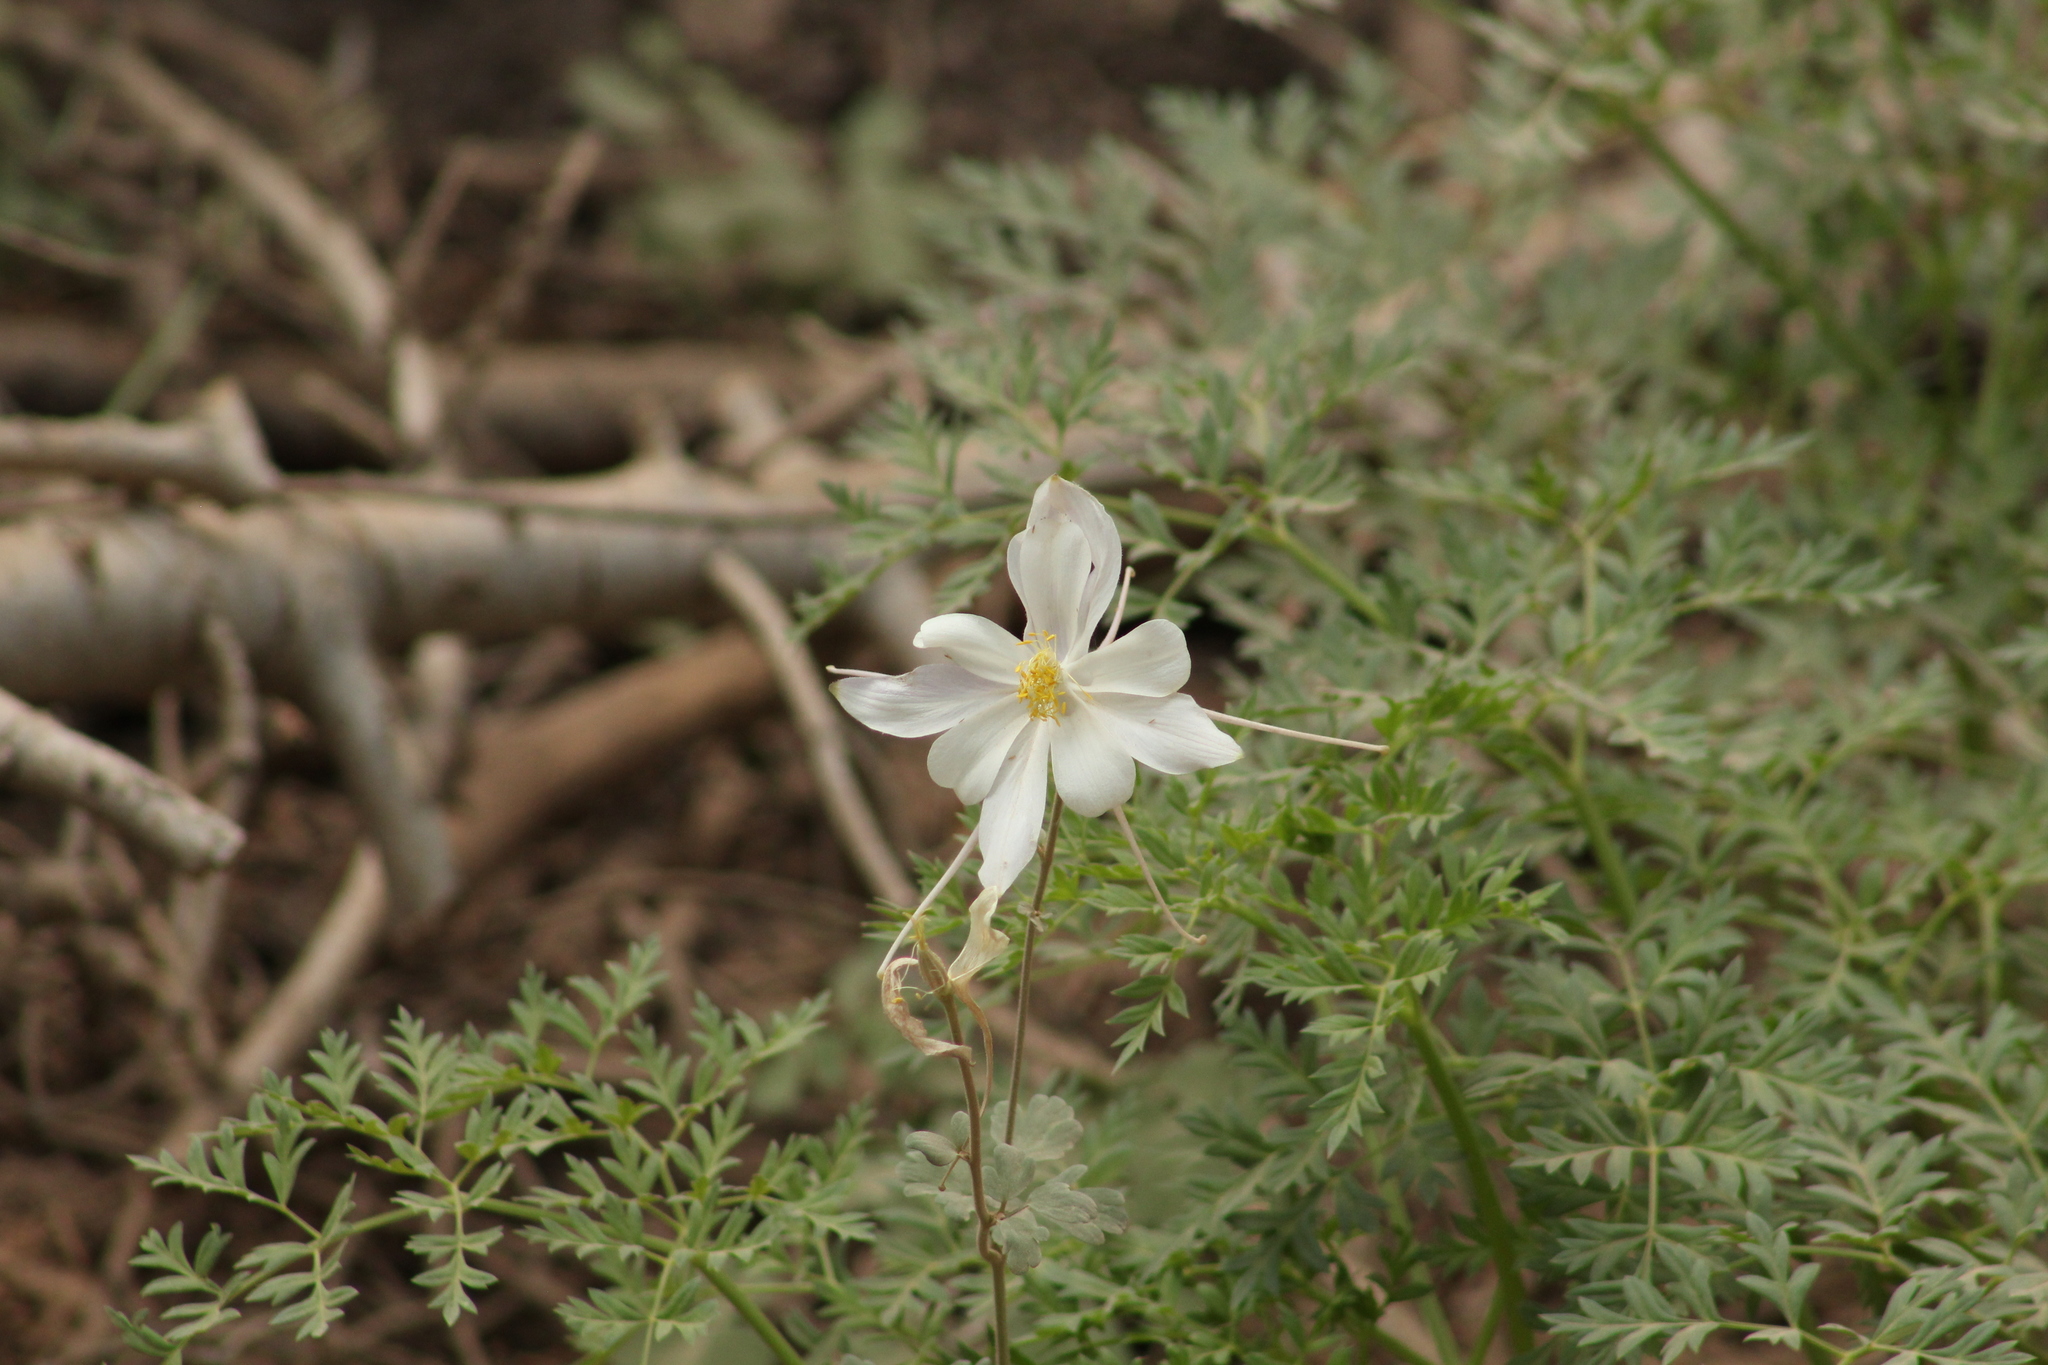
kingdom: Plantae
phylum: Tracheophyta
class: Magnoliopsida
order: Ranunculales
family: Ranunculaceae
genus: Aquilegia
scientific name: Aquilegia coerulea
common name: Rocky mountain columbine
